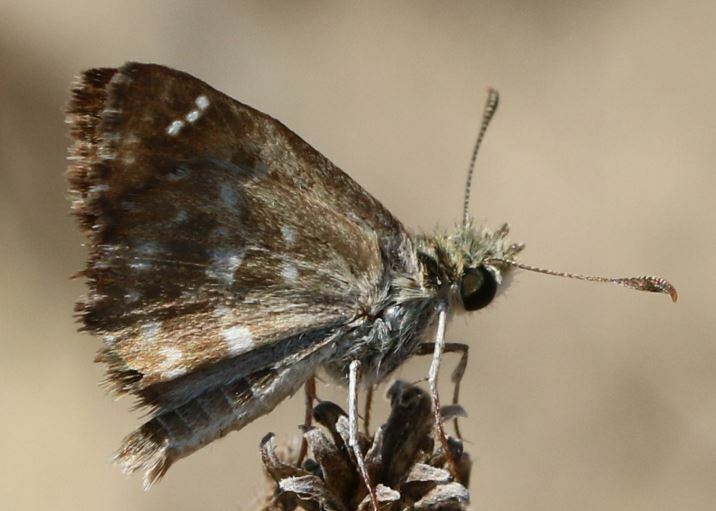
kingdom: Animalia
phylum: Arthropoda
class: Insecta
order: Lepidoptera
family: Hesperiidae
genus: Carcharodus
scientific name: Carcharodus alceae
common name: Mallow skipper
